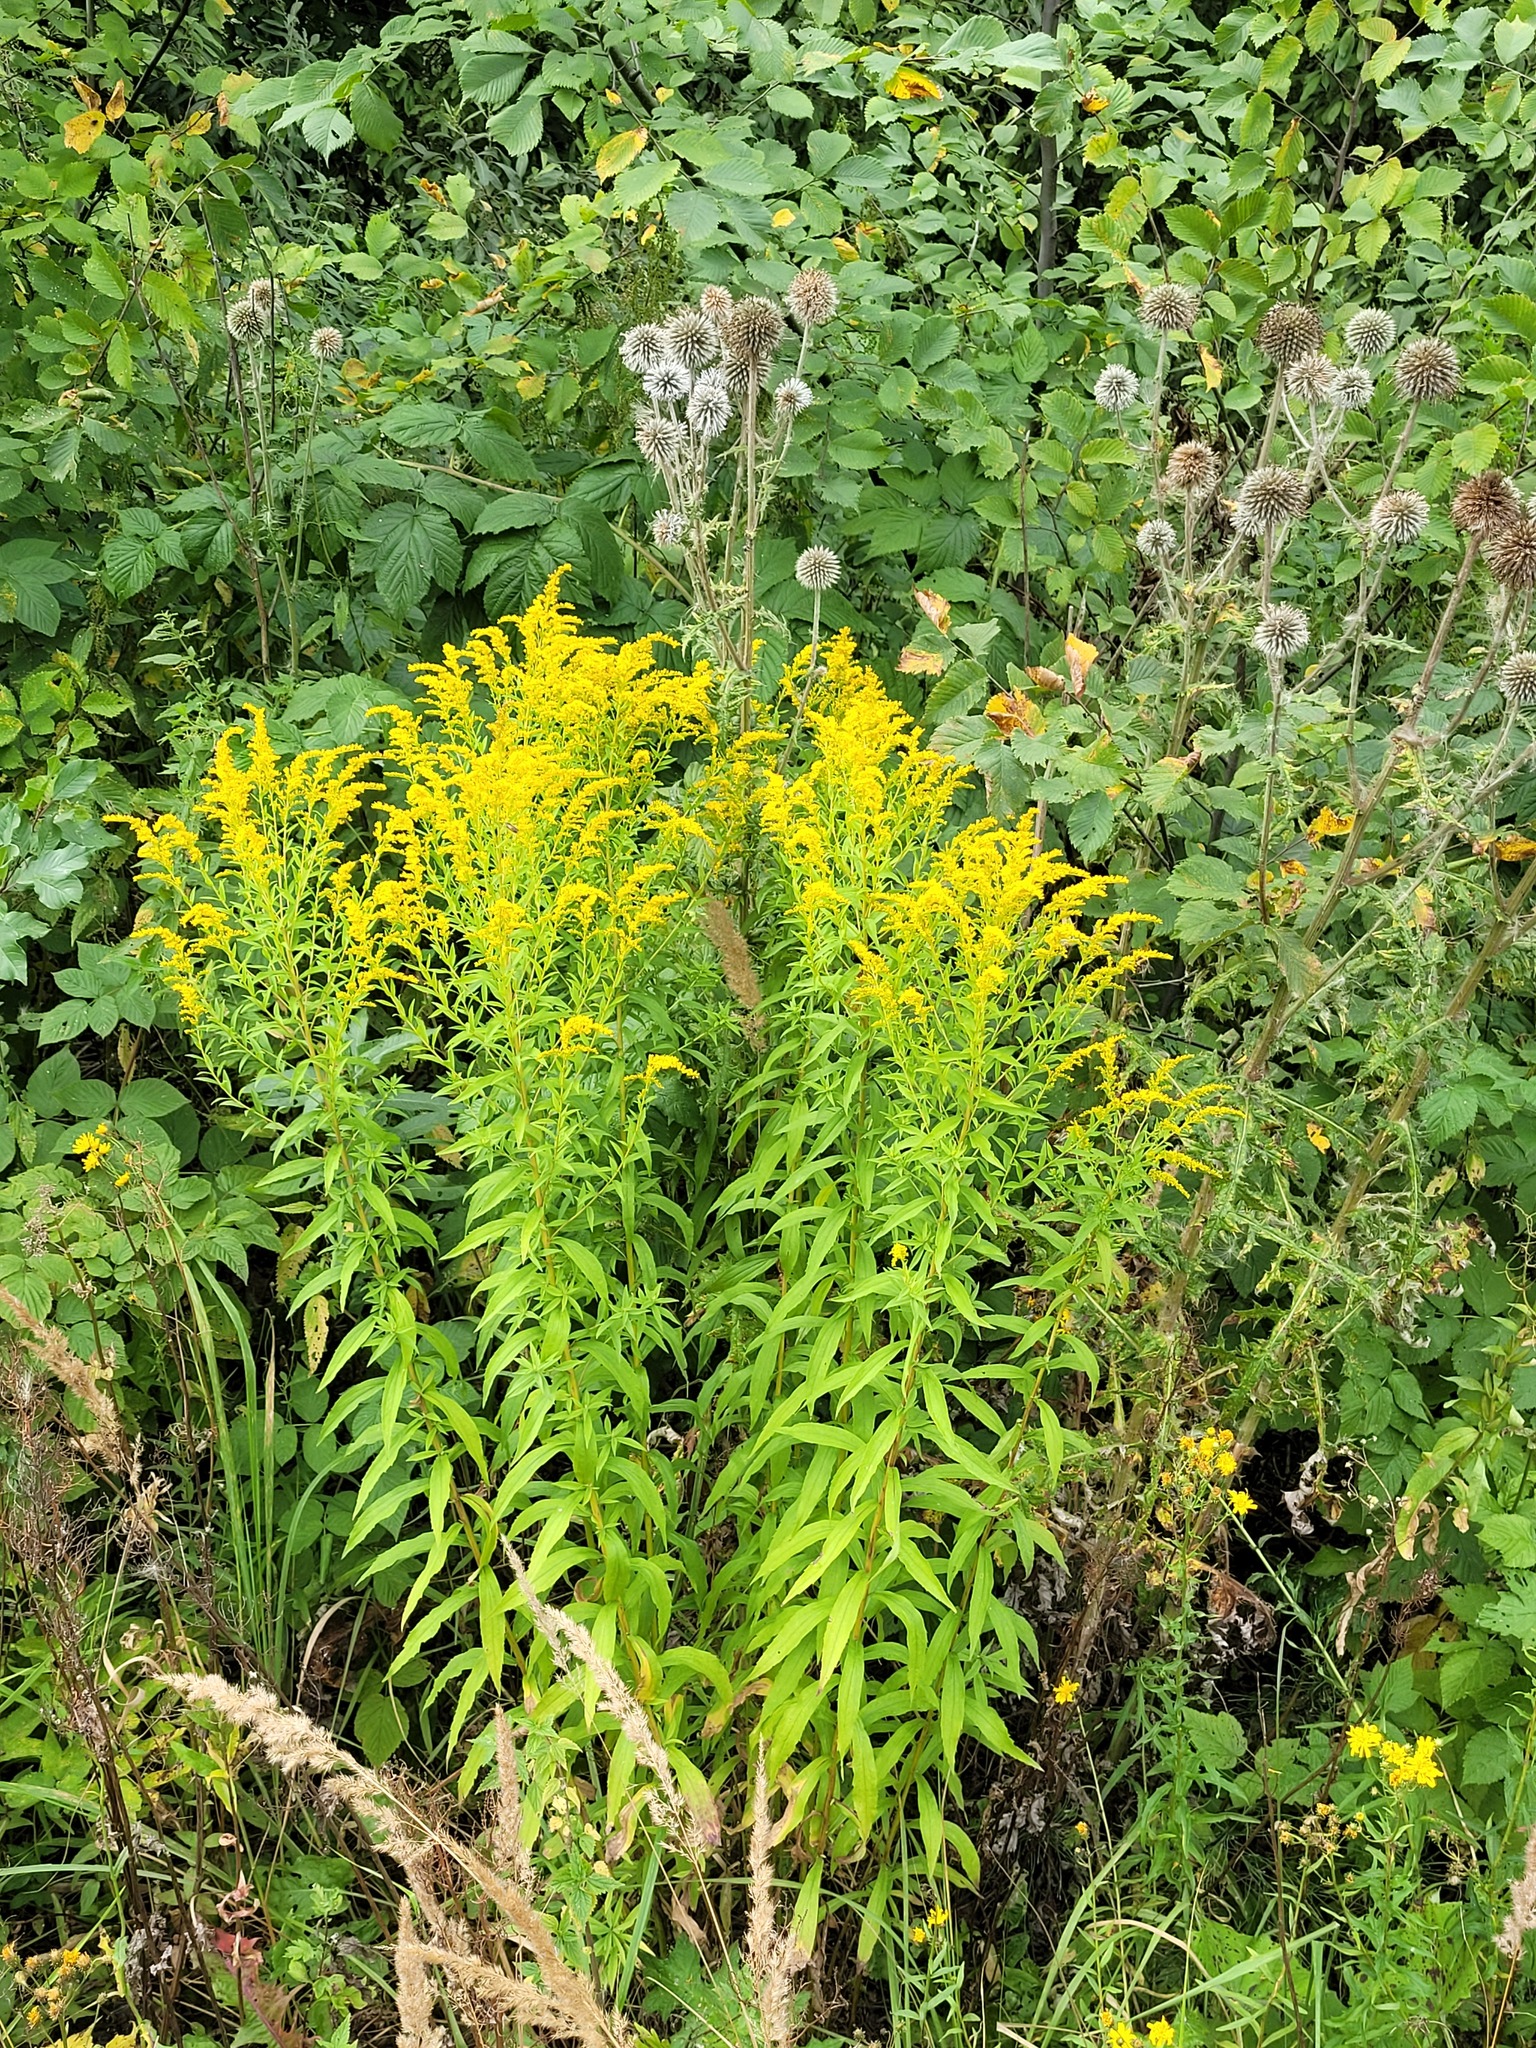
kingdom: Plantae
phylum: Tracheophyta
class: Magnoliopsida
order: Asterales
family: Asteraceae
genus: Solidago
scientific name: Solidago canadensis
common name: Canada goldenrod
